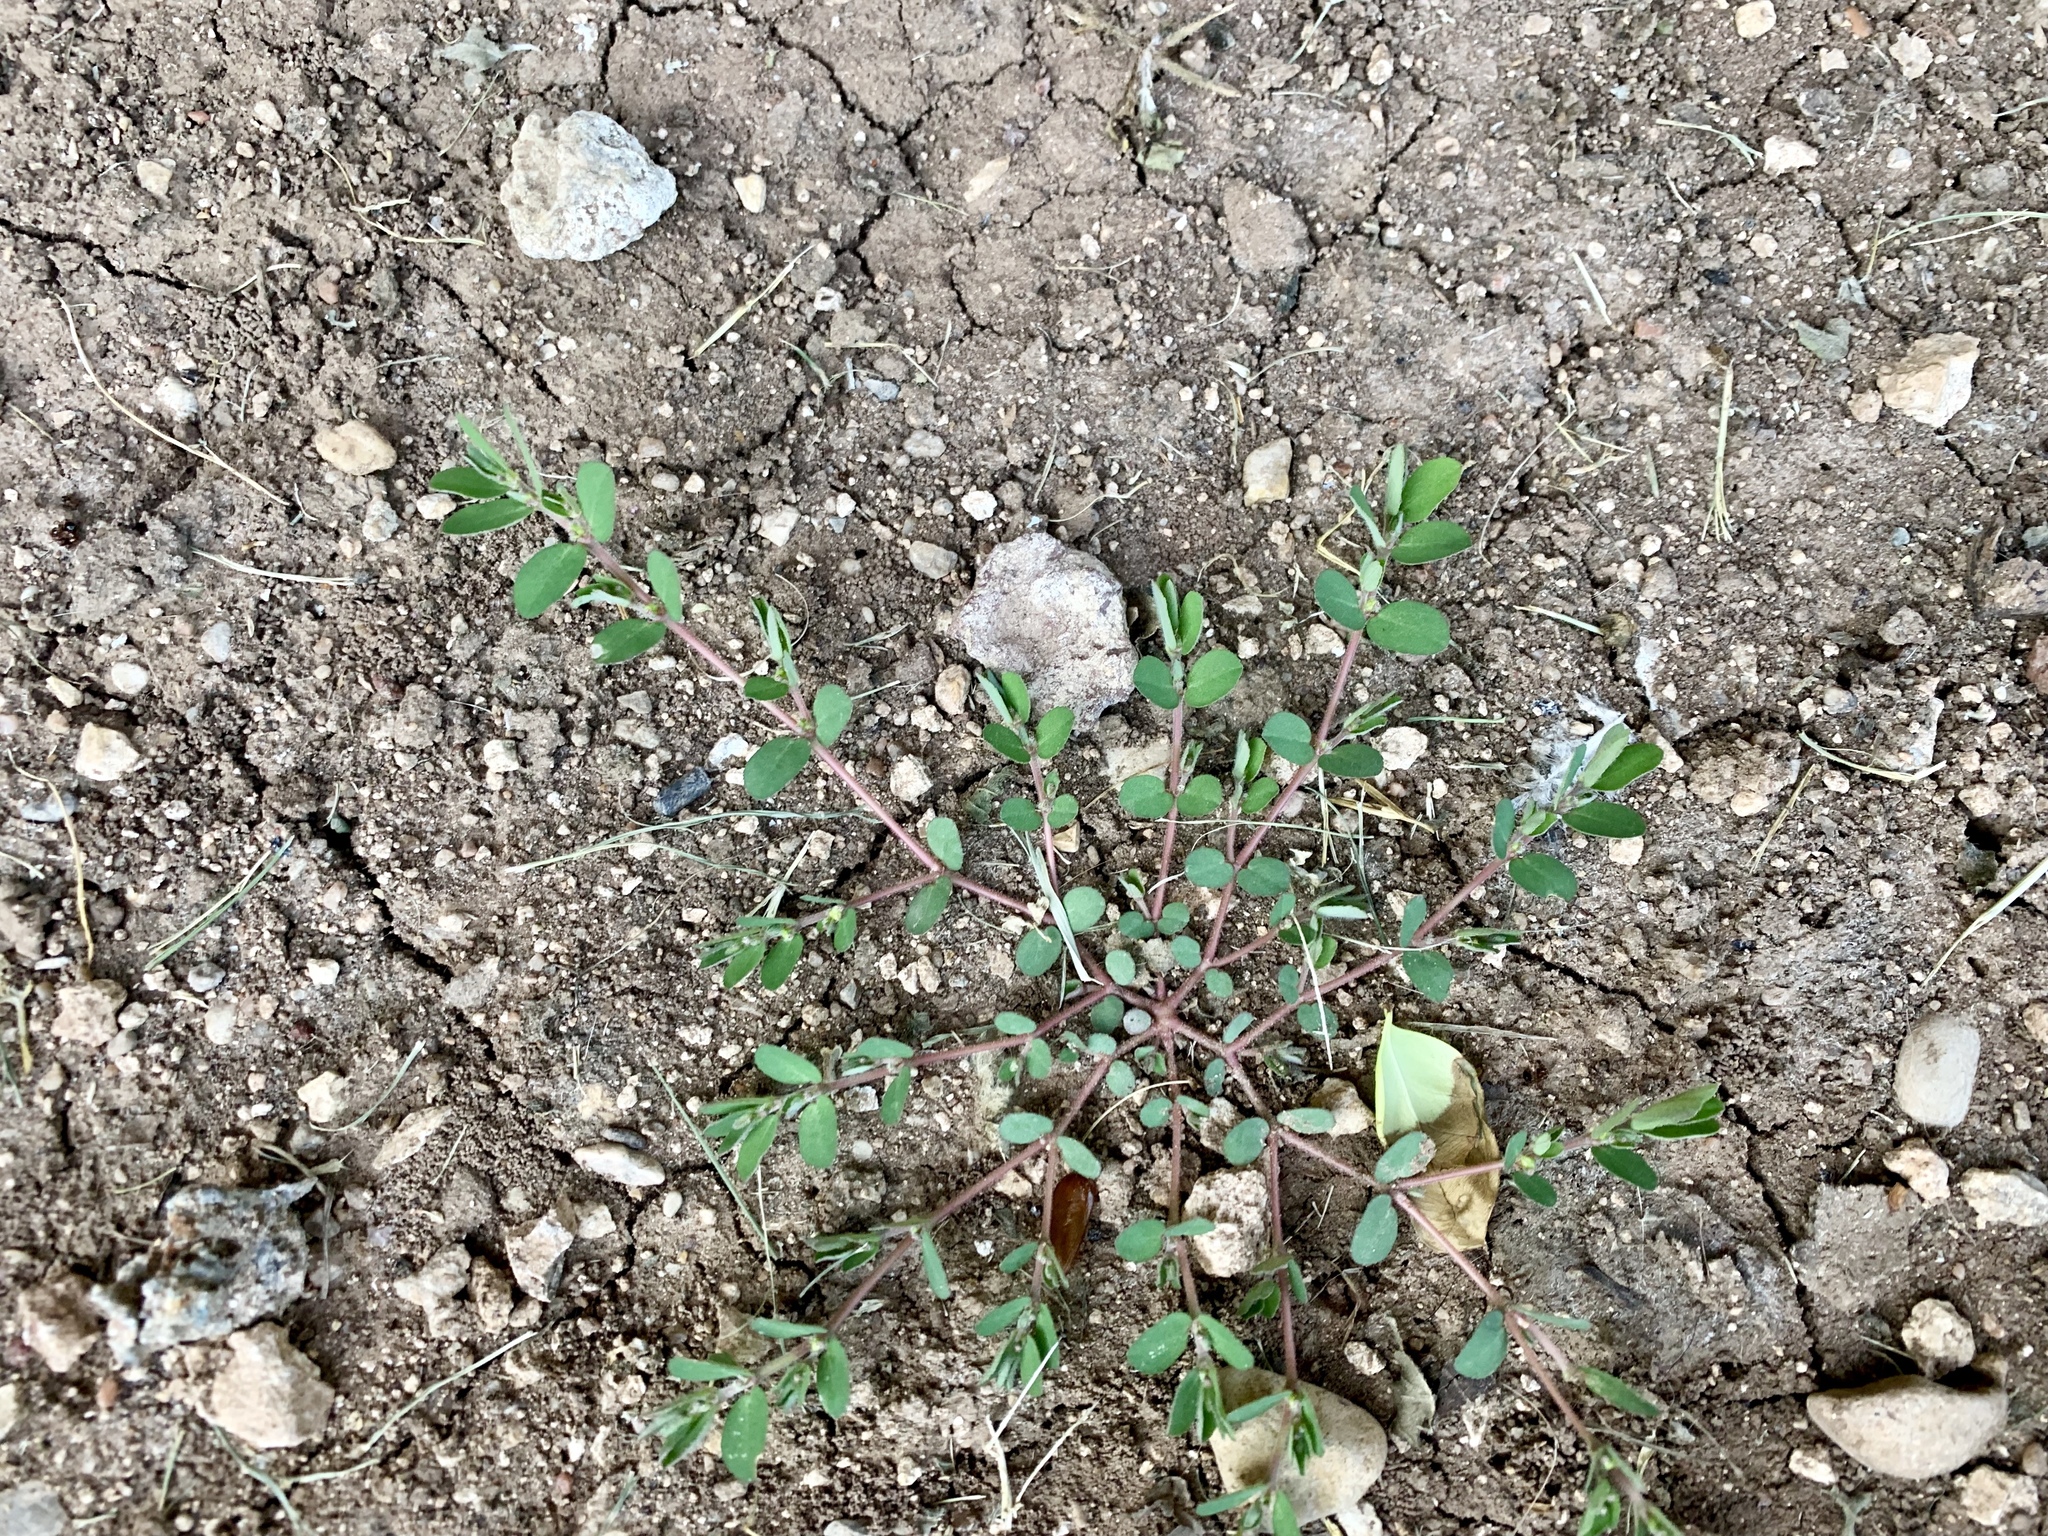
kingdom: Plantae
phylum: Tracheophyta
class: Magnoliopsida
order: Malpighiales
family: Euphorbiaceae
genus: Euphorbia
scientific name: Euphorbia prostrata
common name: Prostrate sandmat
